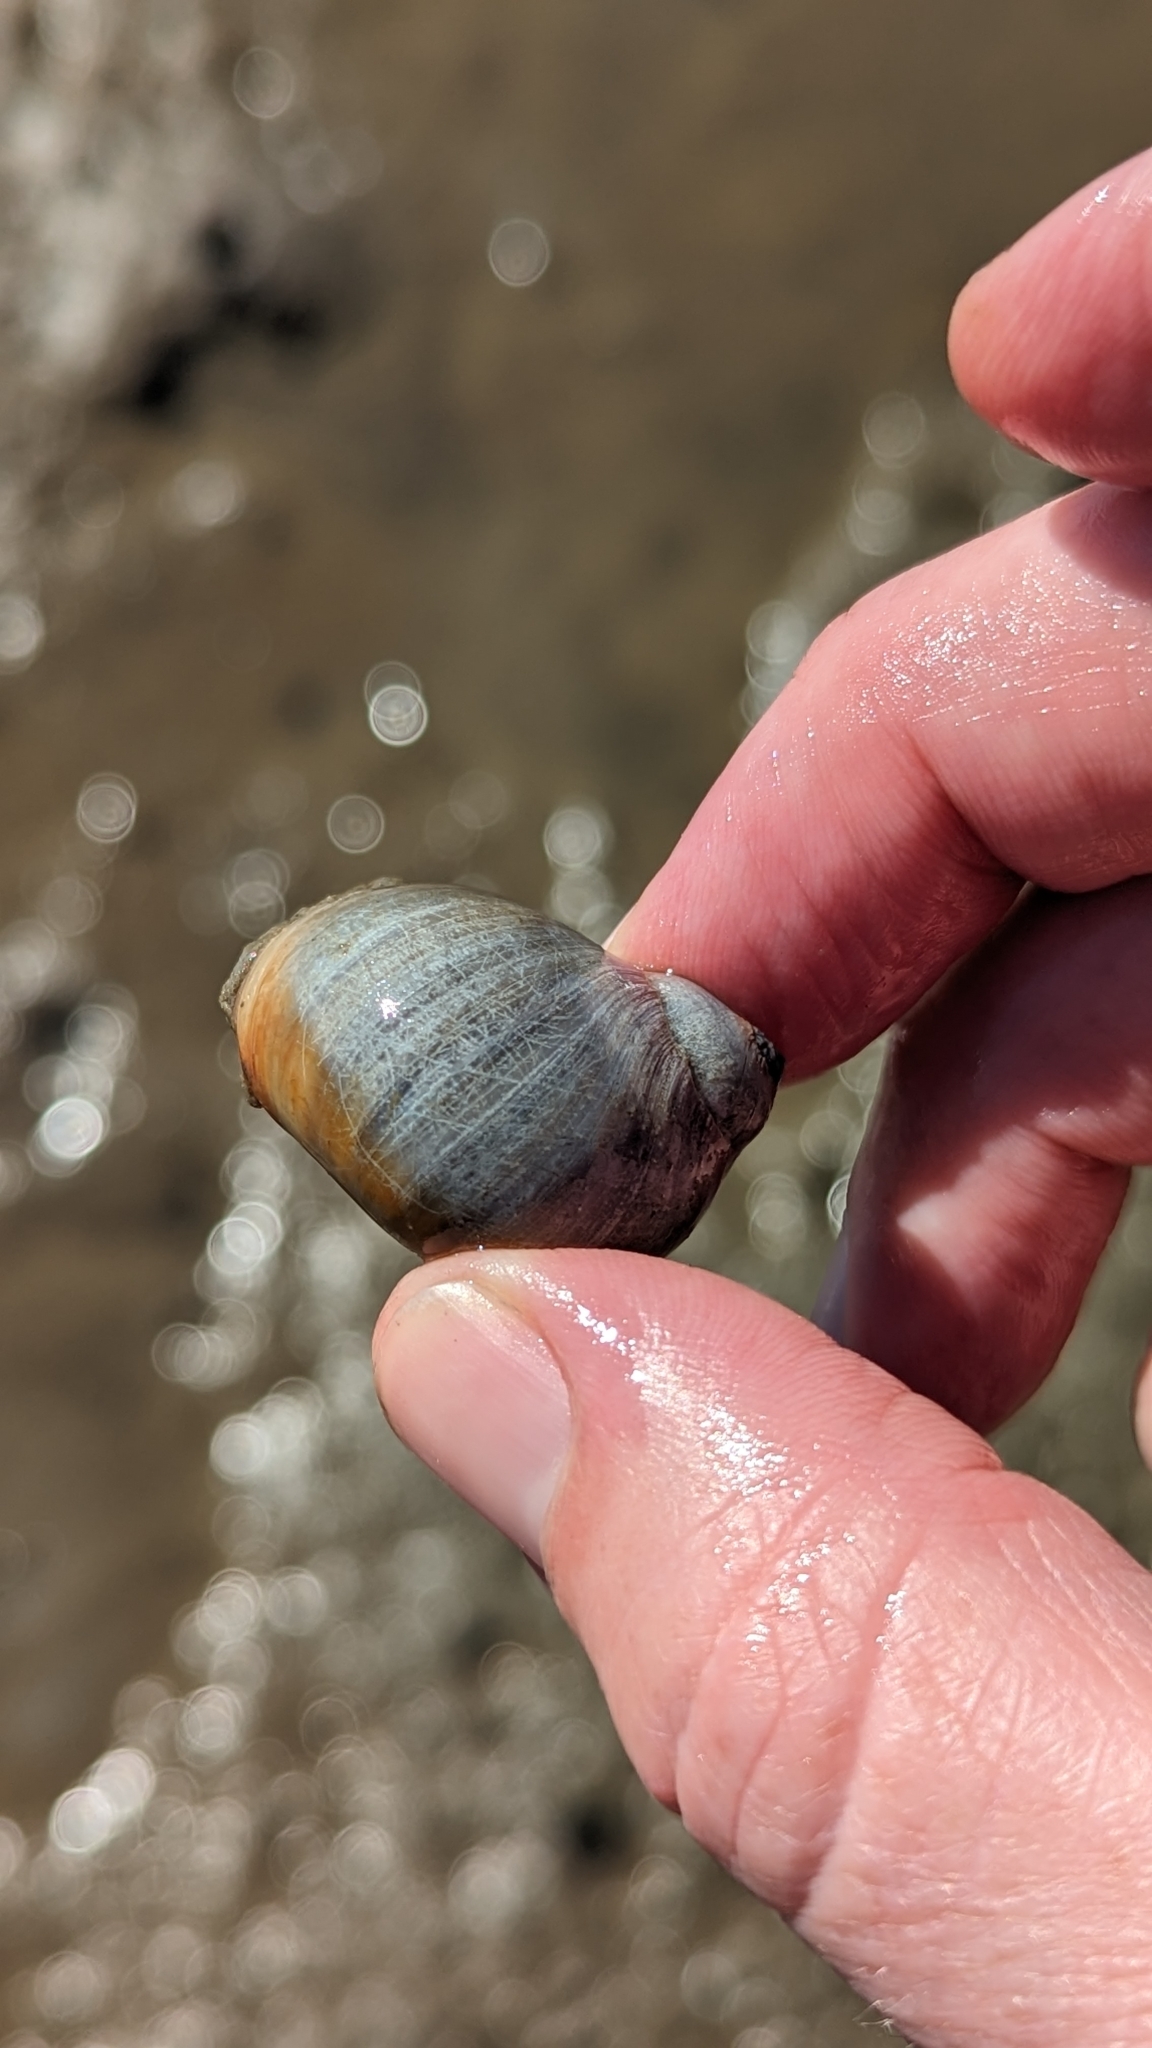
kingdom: Animalia
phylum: Mollusca
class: Gastropoda
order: Littorinimorpha
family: Naticidae
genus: Conuber
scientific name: Conuber sordidum
